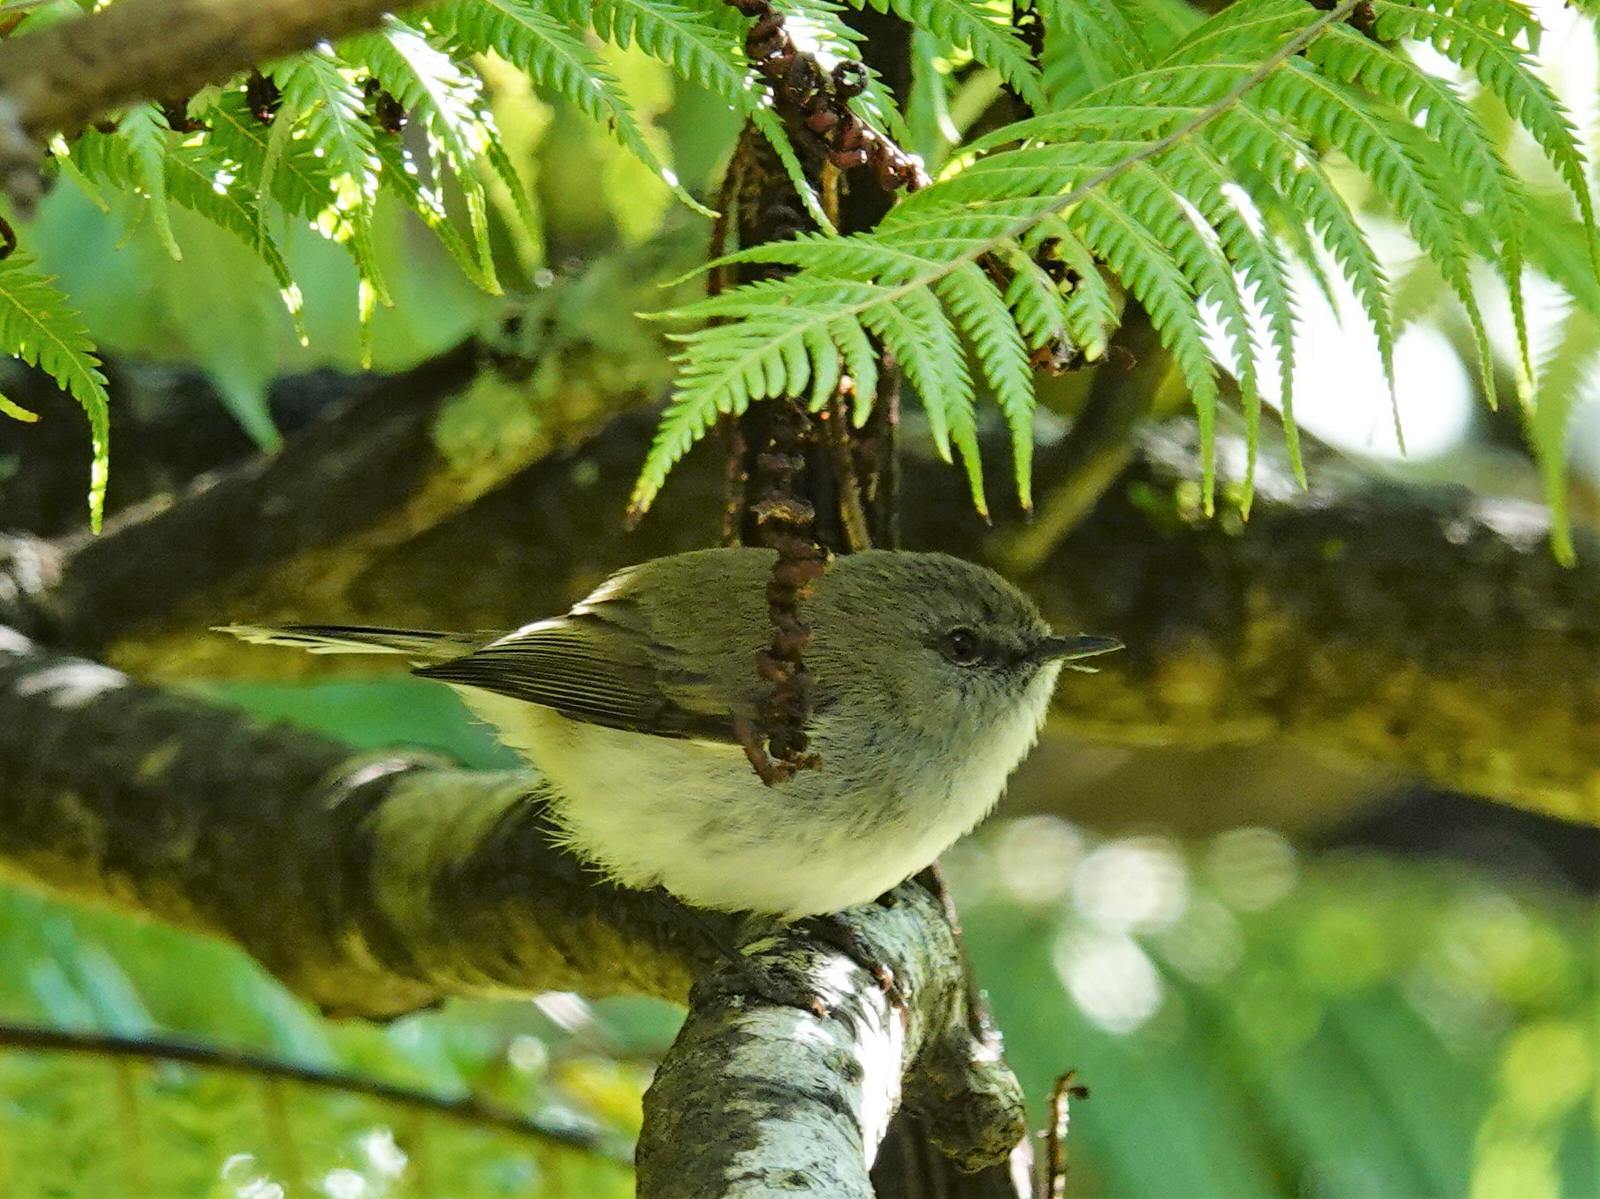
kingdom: Animalia
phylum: Chordata
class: Aves
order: Passeriformes
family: Acanthizidae
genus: Gerygone
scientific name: Gerygone igata
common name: Grey gerygone
